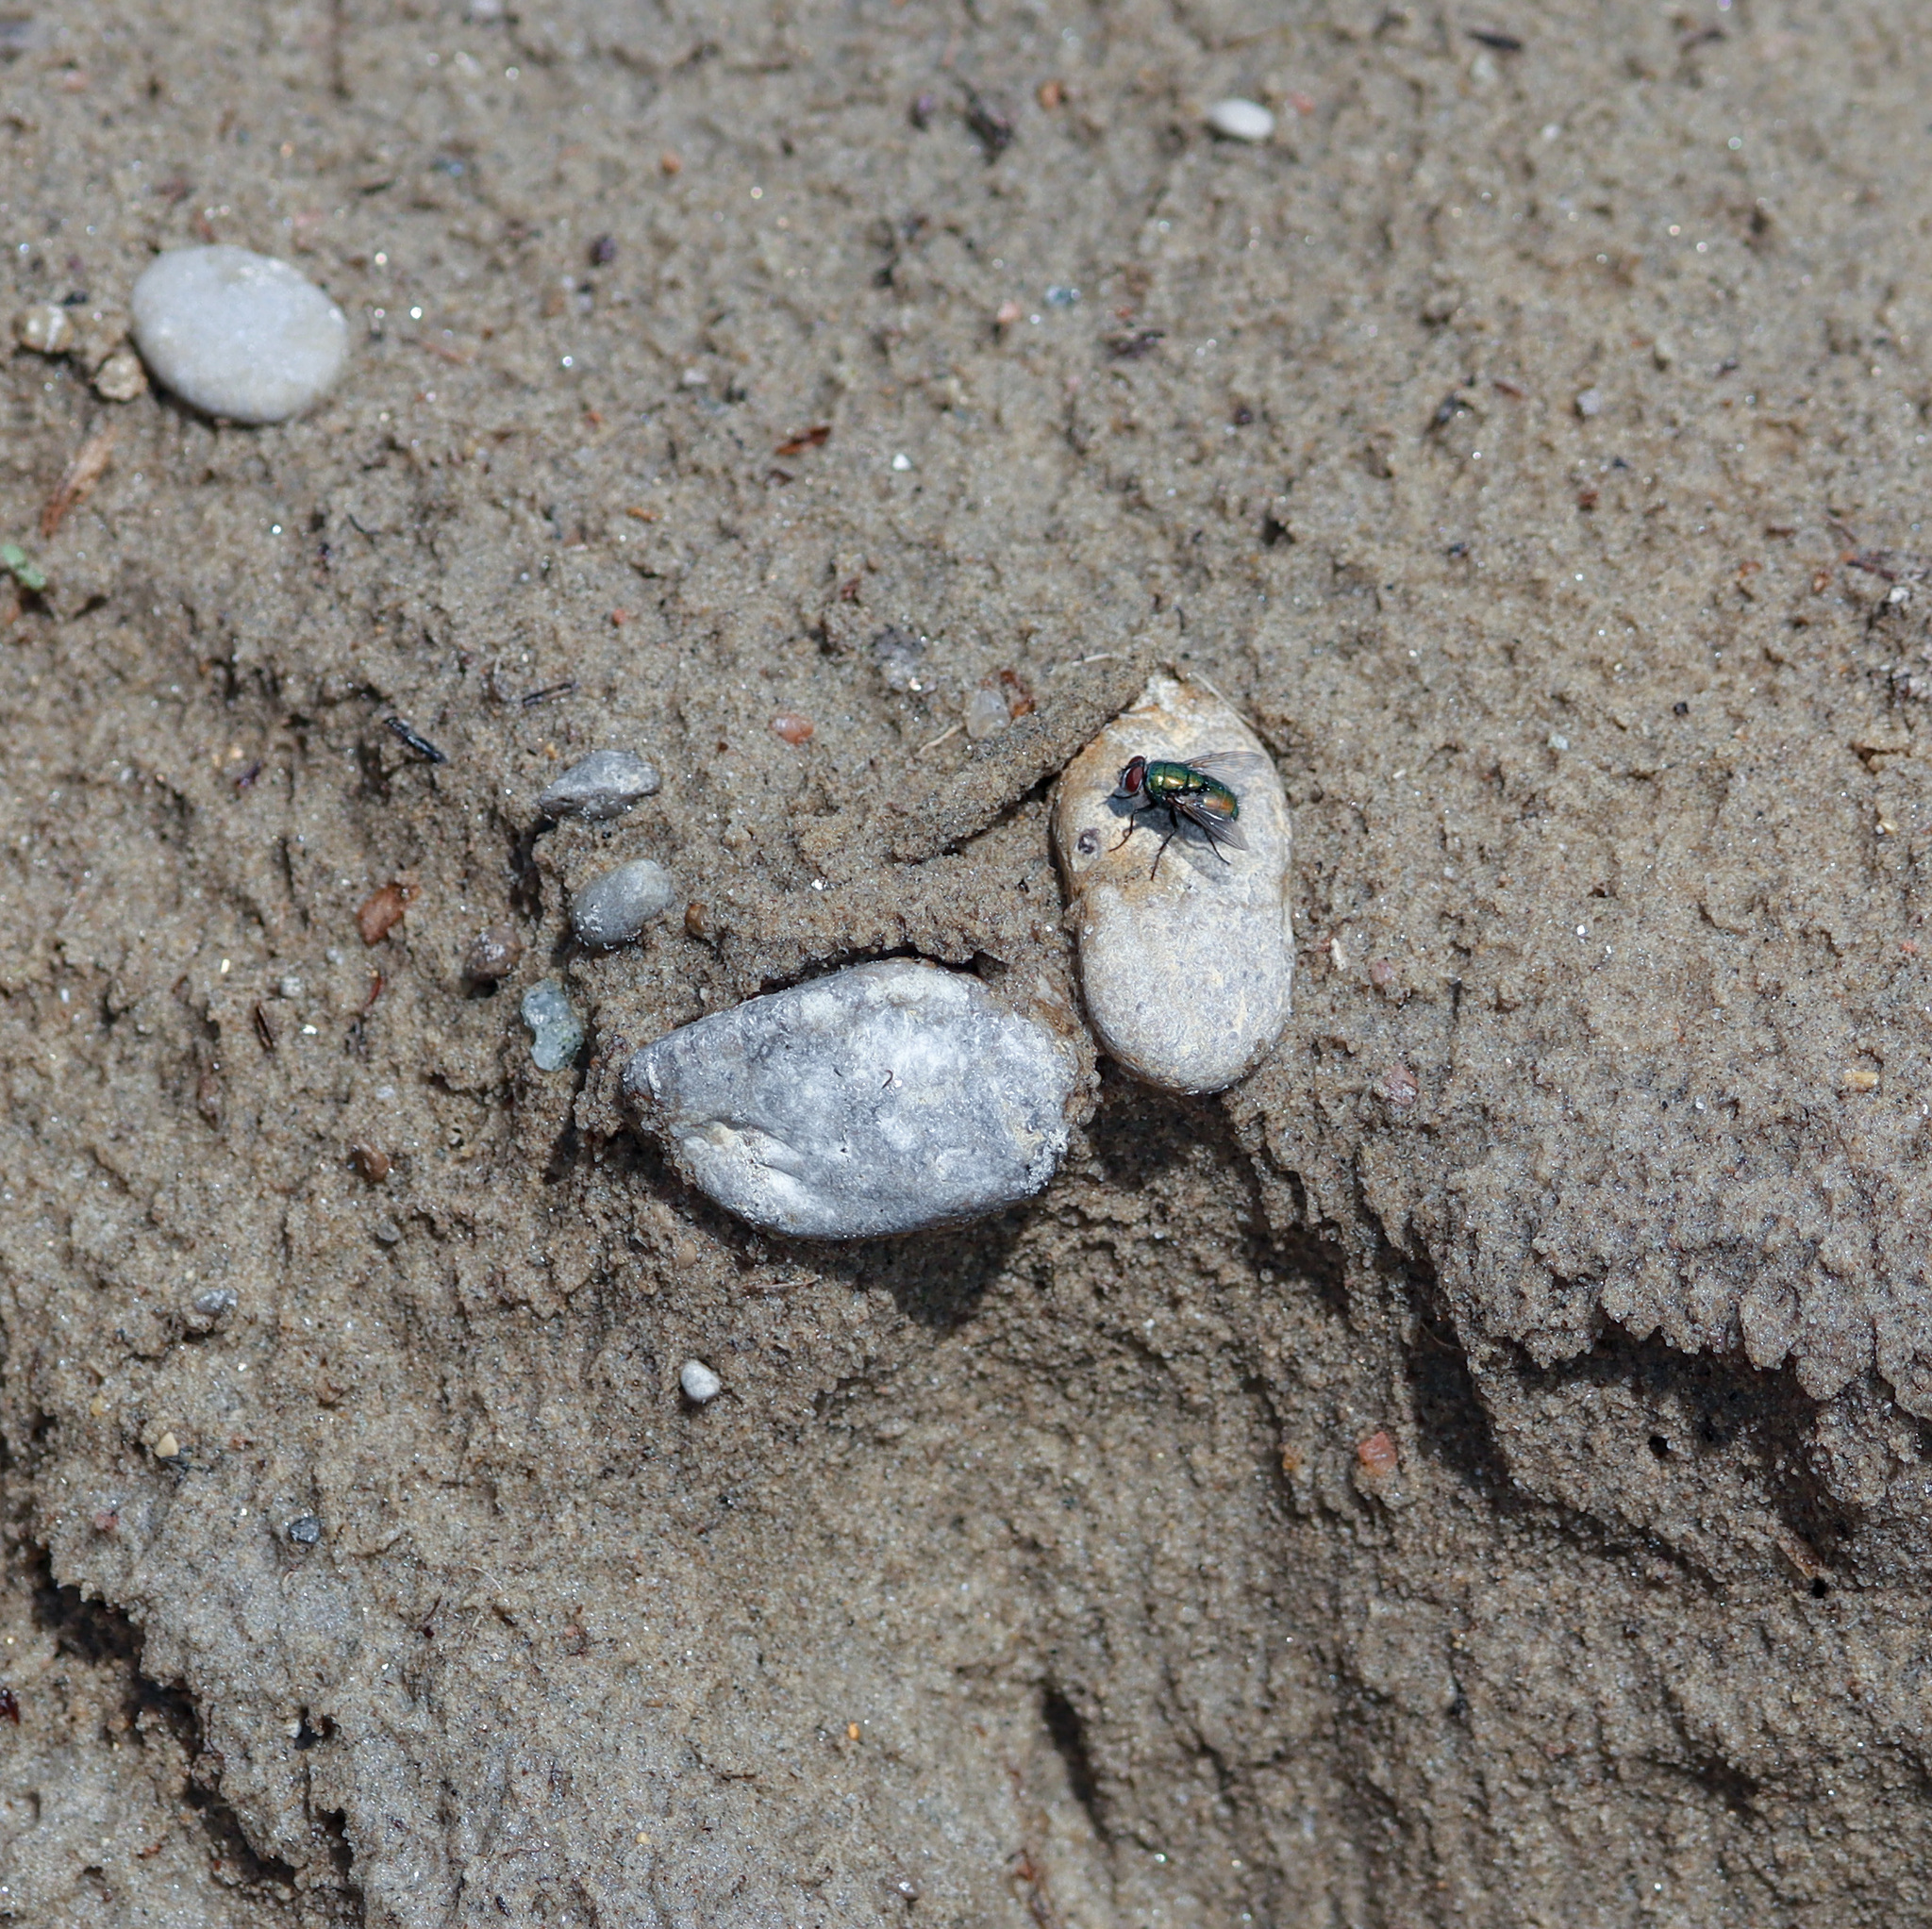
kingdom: Animalia
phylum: Arthropoda
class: Insecta
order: Diptera
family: Calliphoridae
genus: Lucilia
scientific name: Lucilia sericata
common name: Blow fly
